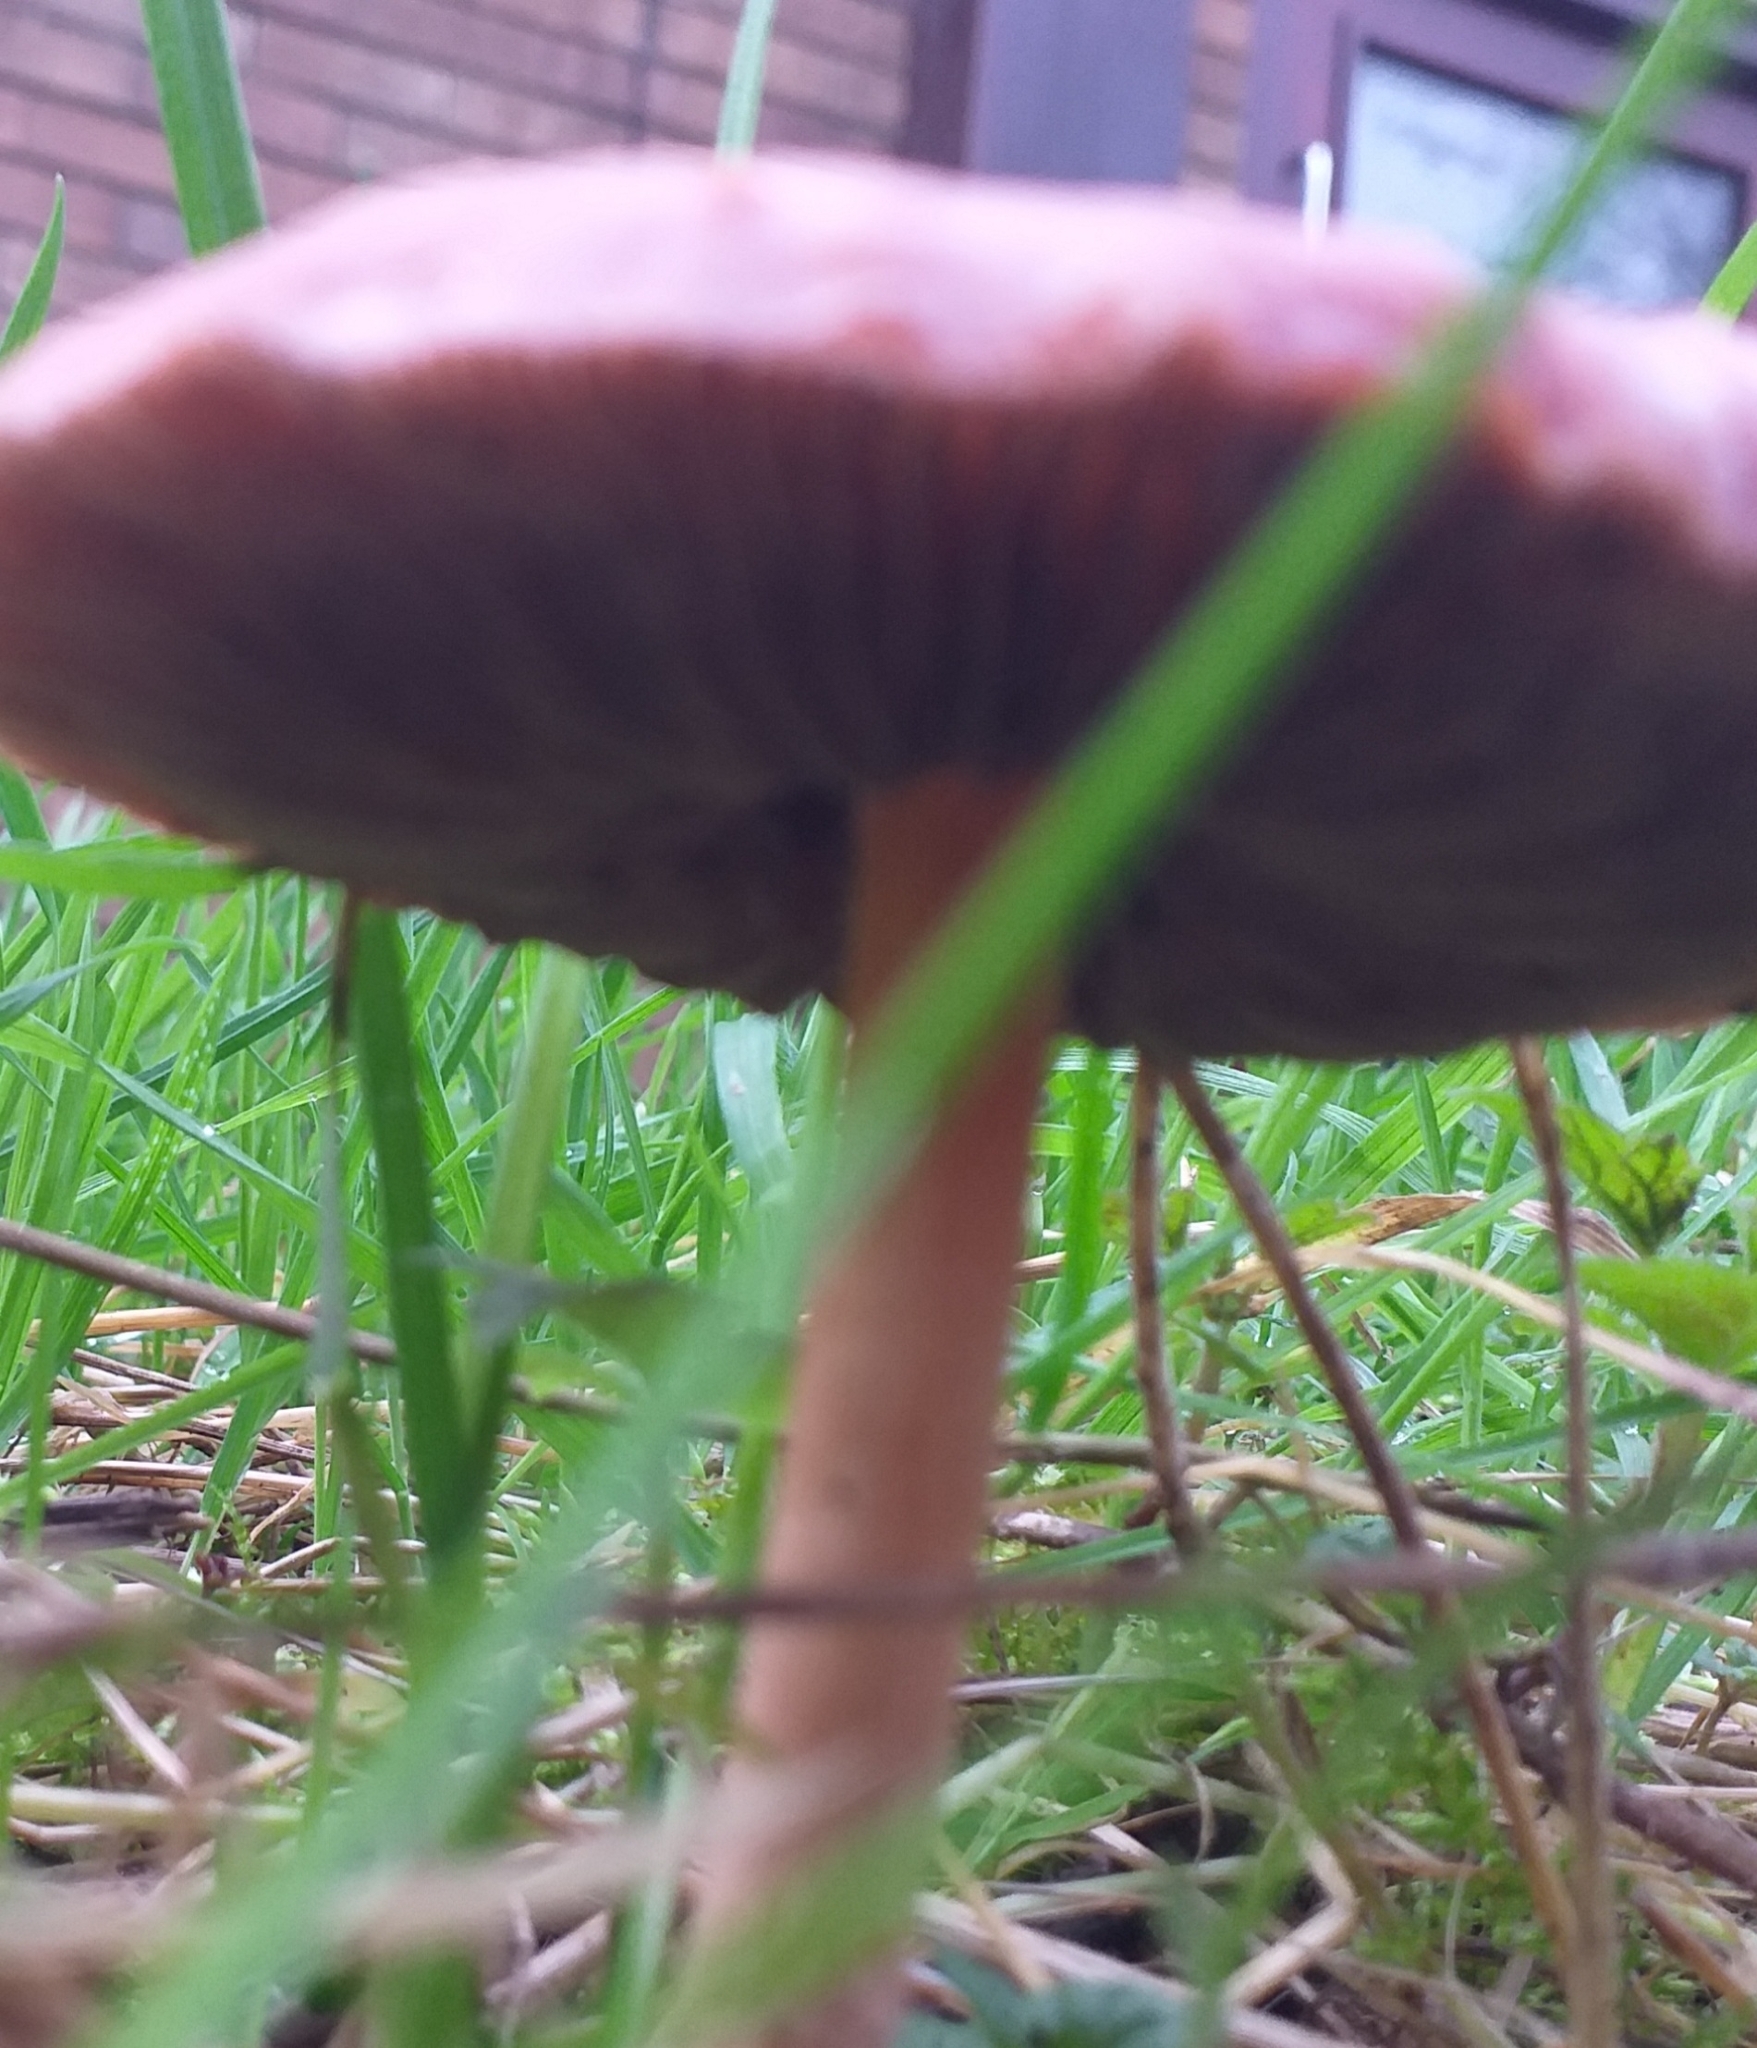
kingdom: Fungi
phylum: Basidiomycota
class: Agaricomycetes
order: Agaricales
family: Strophariaceae
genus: Leratiomyces
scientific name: Leratiomyces ceres
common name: Redlead roundhead
